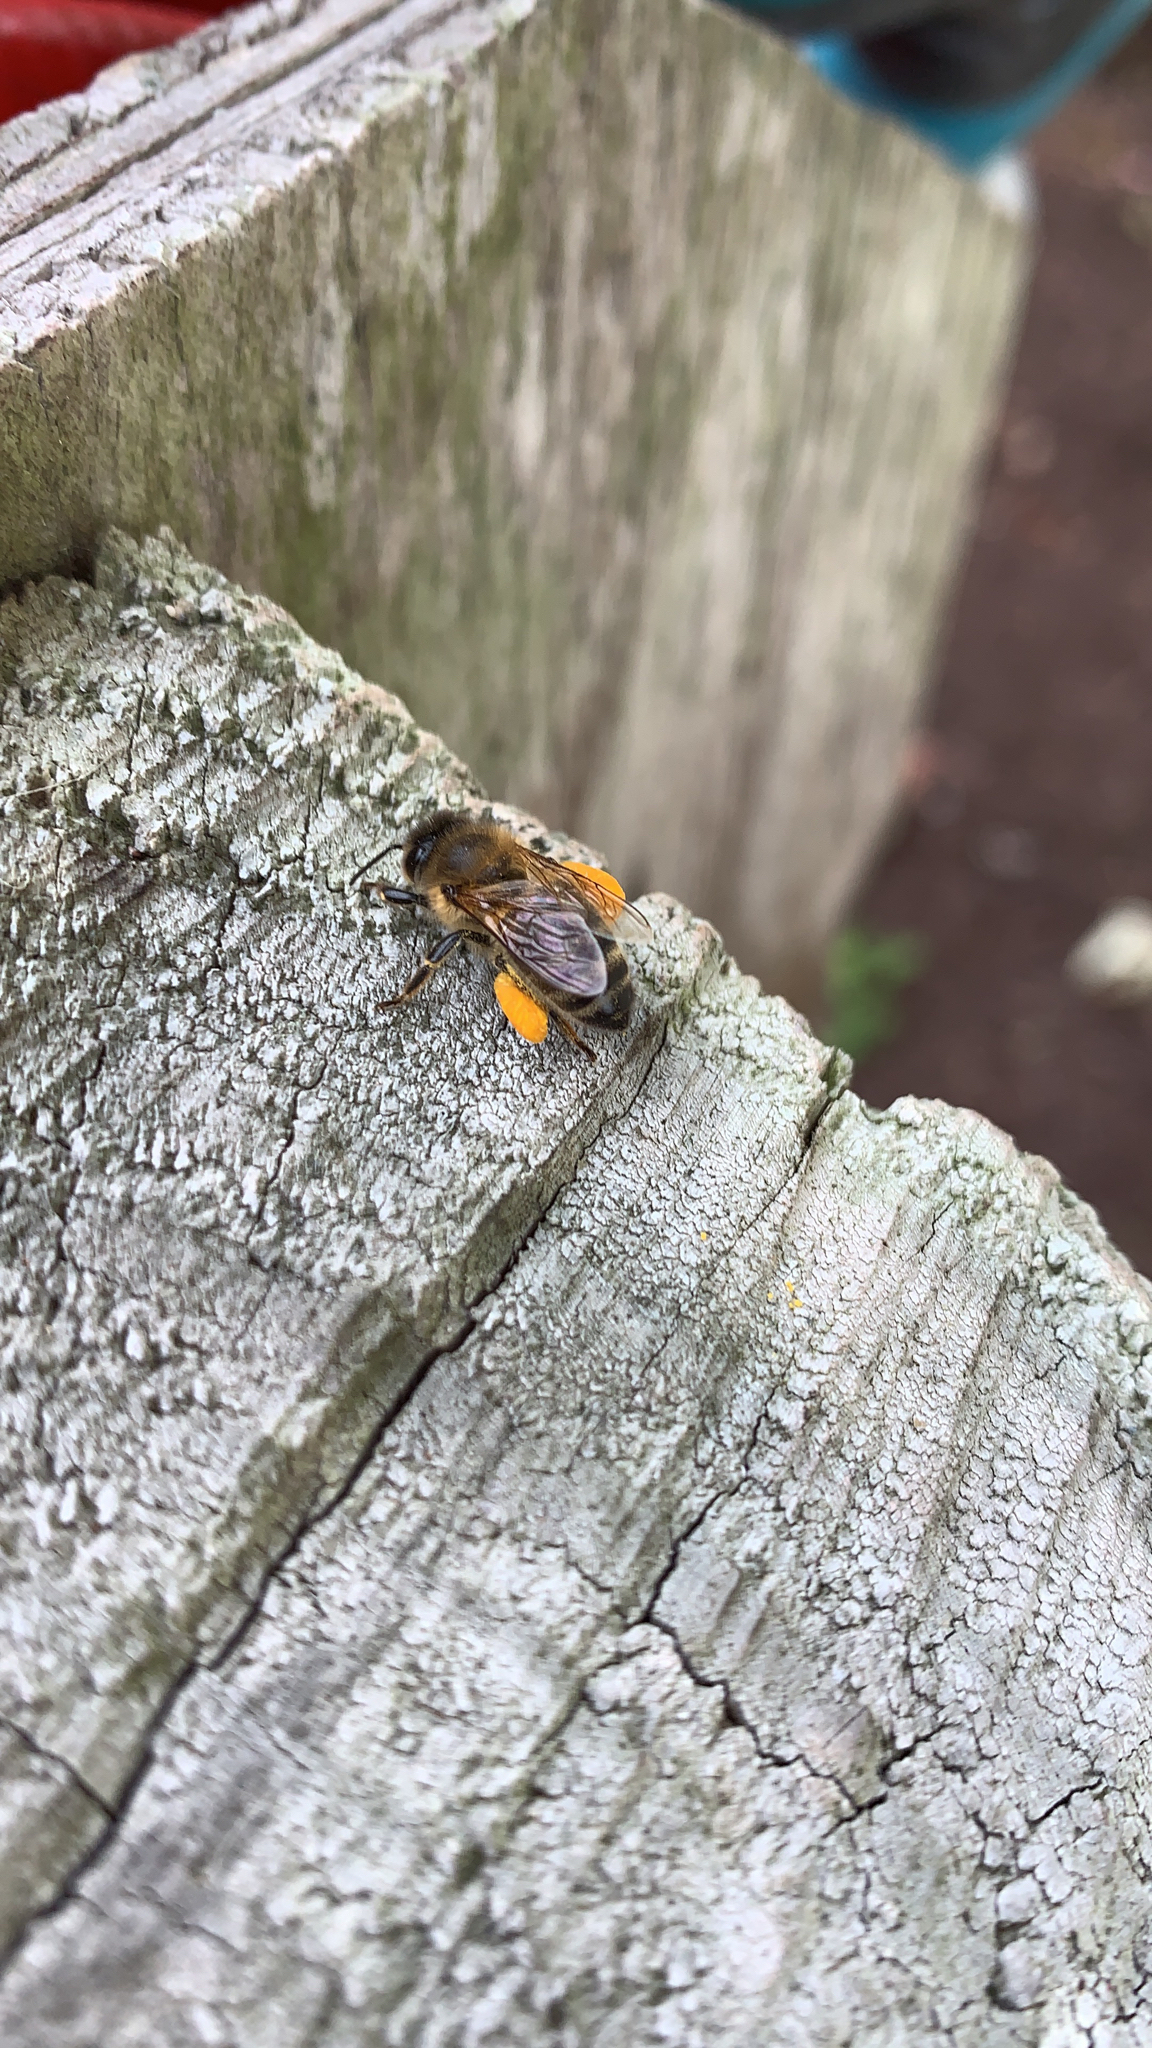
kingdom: Animalia
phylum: Arthropoda
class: Insecta
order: Hymenoptera
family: Apidae
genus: Apis
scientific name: Apis mellifera
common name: Honey bee
